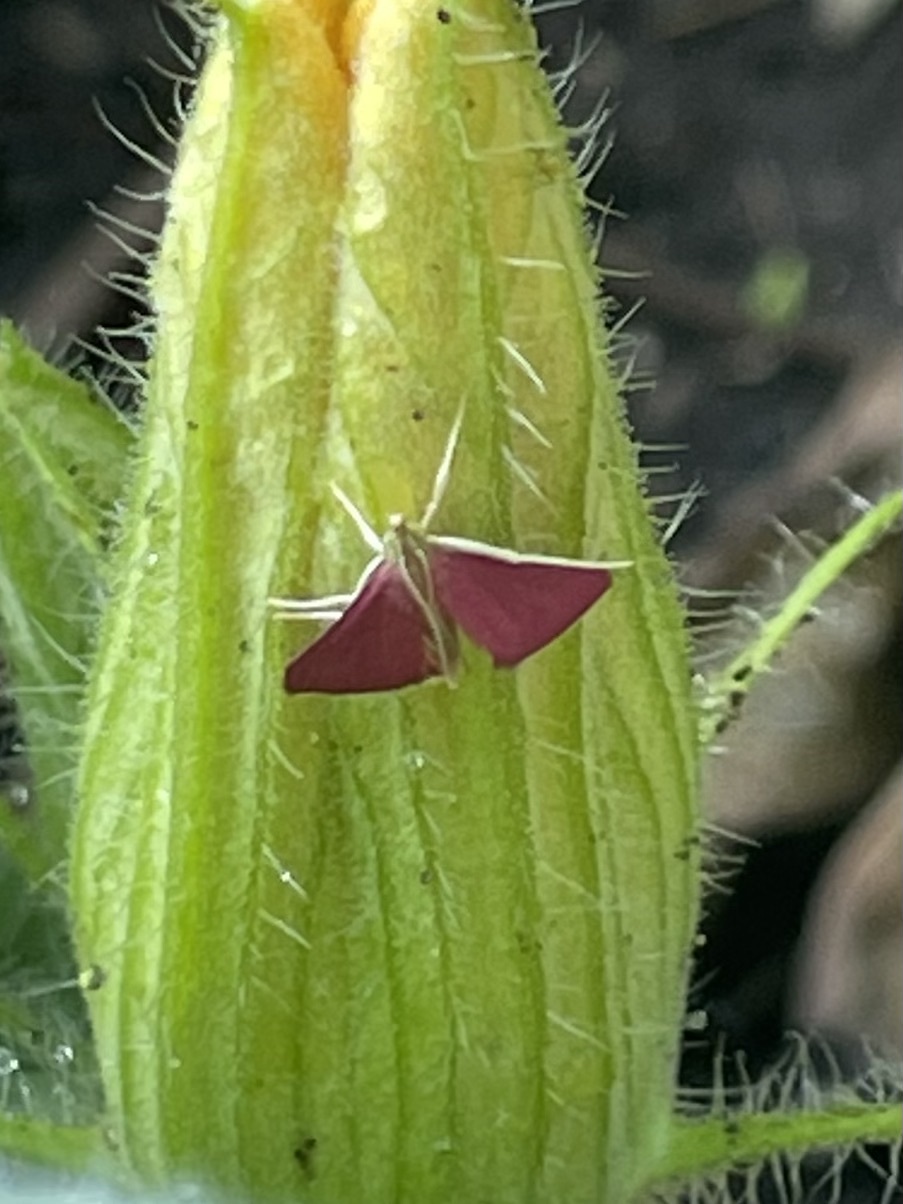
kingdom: Animalia
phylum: Arthropoda
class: Insecta
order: Lepidoptera
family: Crambidae
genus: Pyrausta
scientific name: Pyrausta inornatalis
